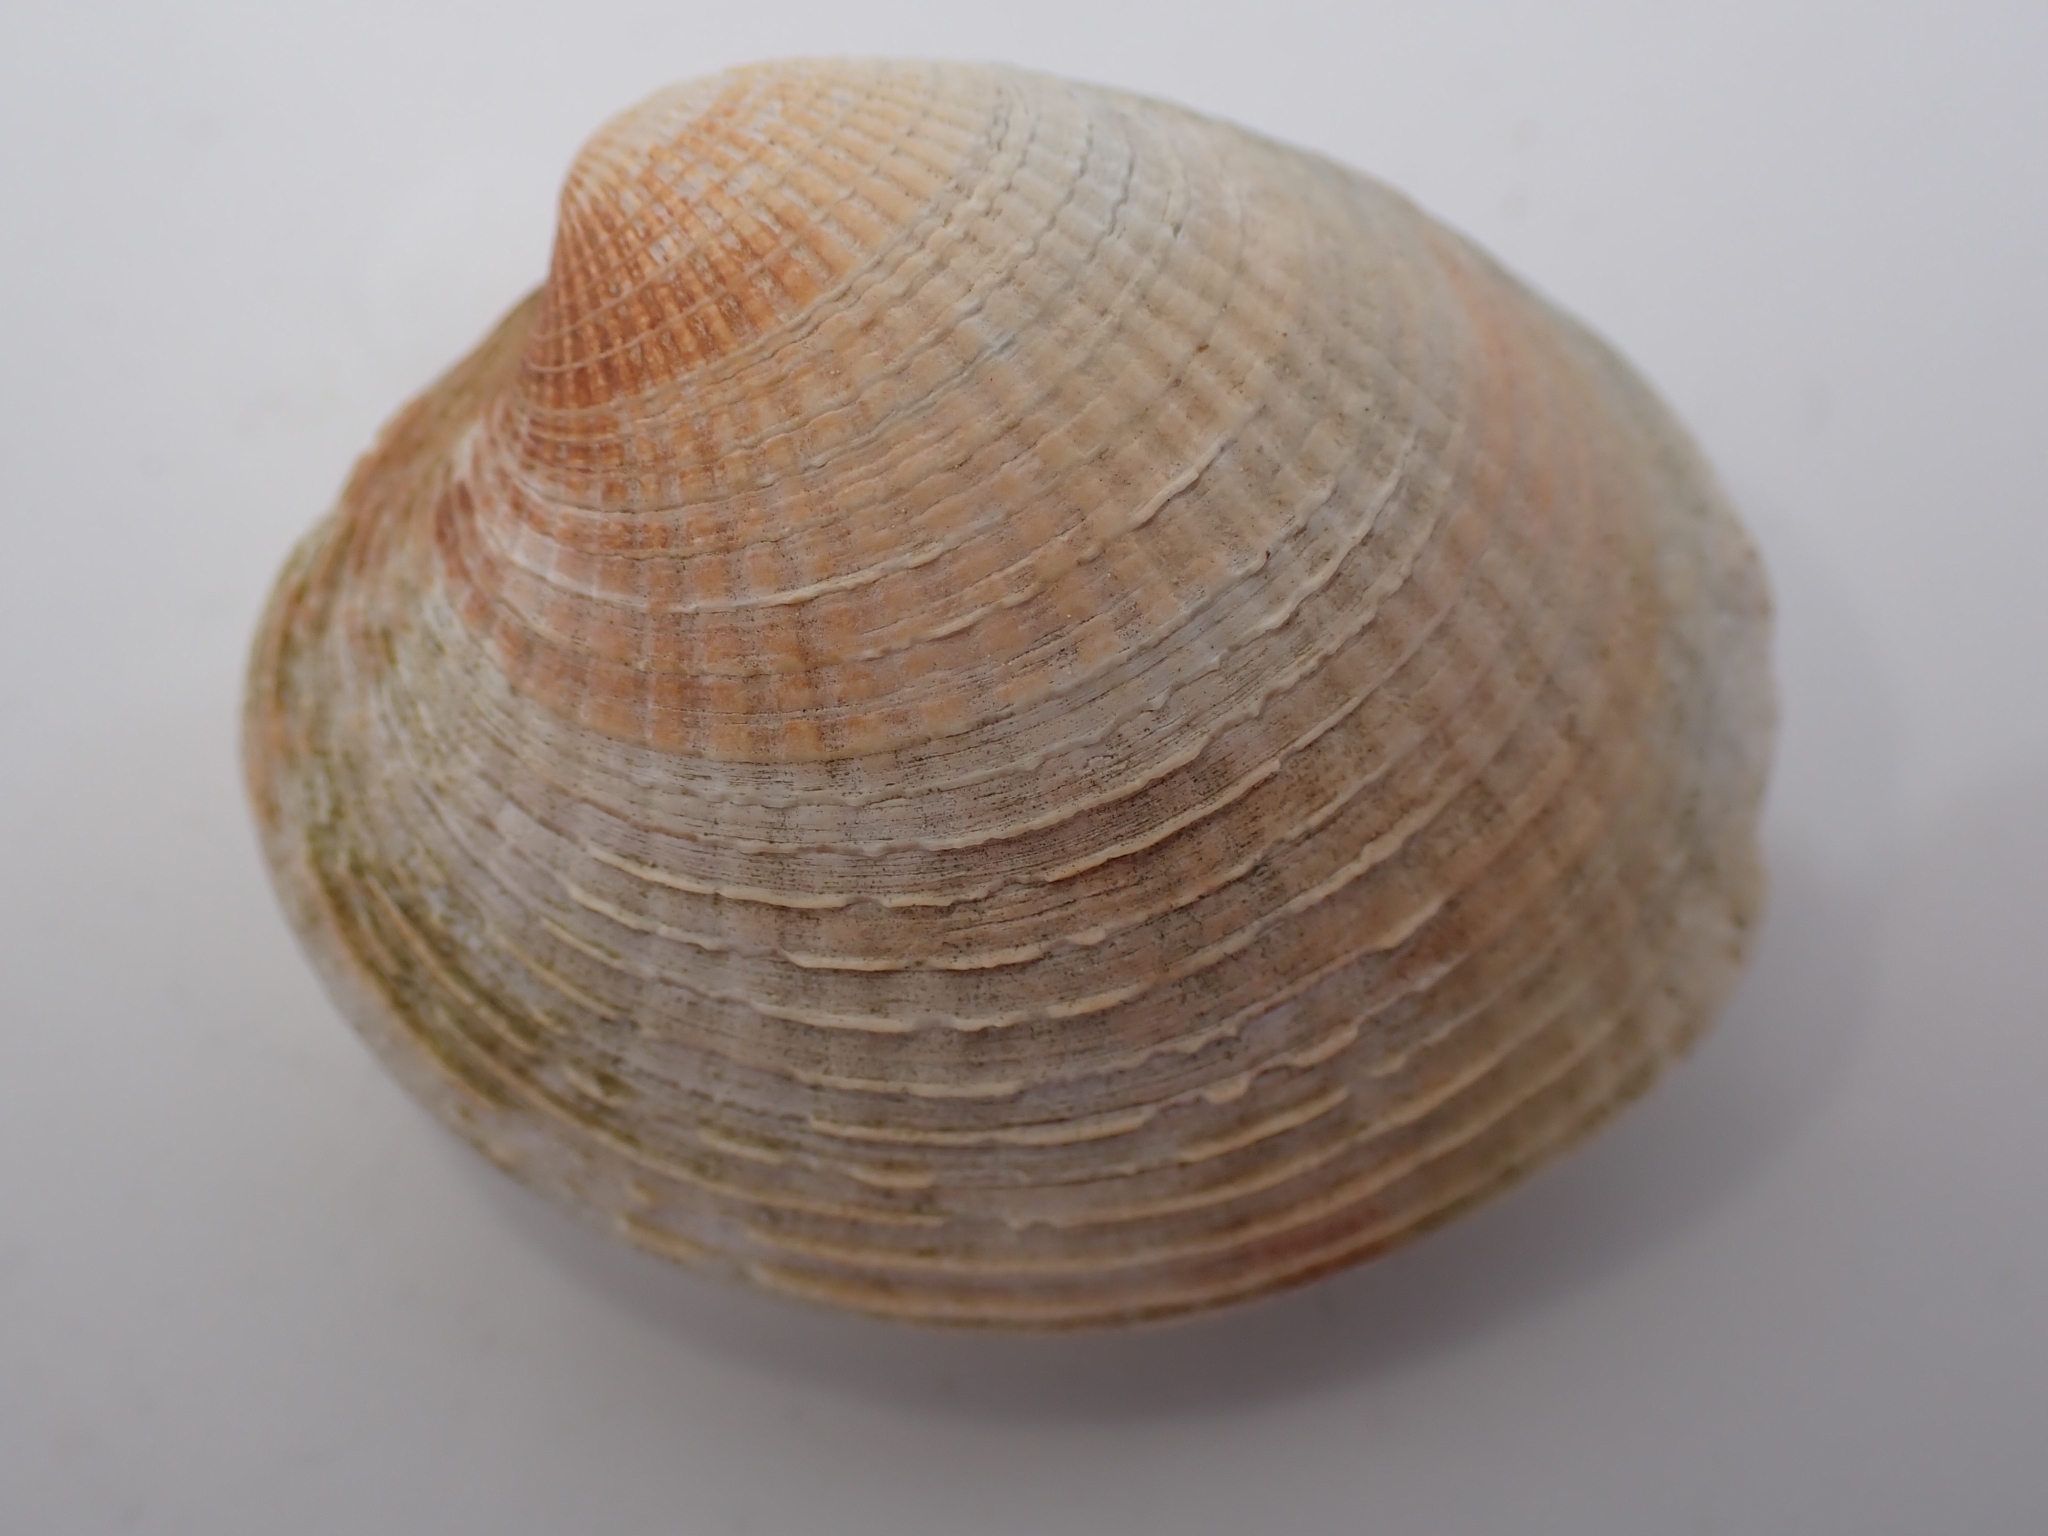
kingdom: Animalia
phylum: Mollusca
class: Bivalvia
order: Venerida
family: Veneridae
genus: Austrovenus
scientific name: Austrovenus stutchburyi
